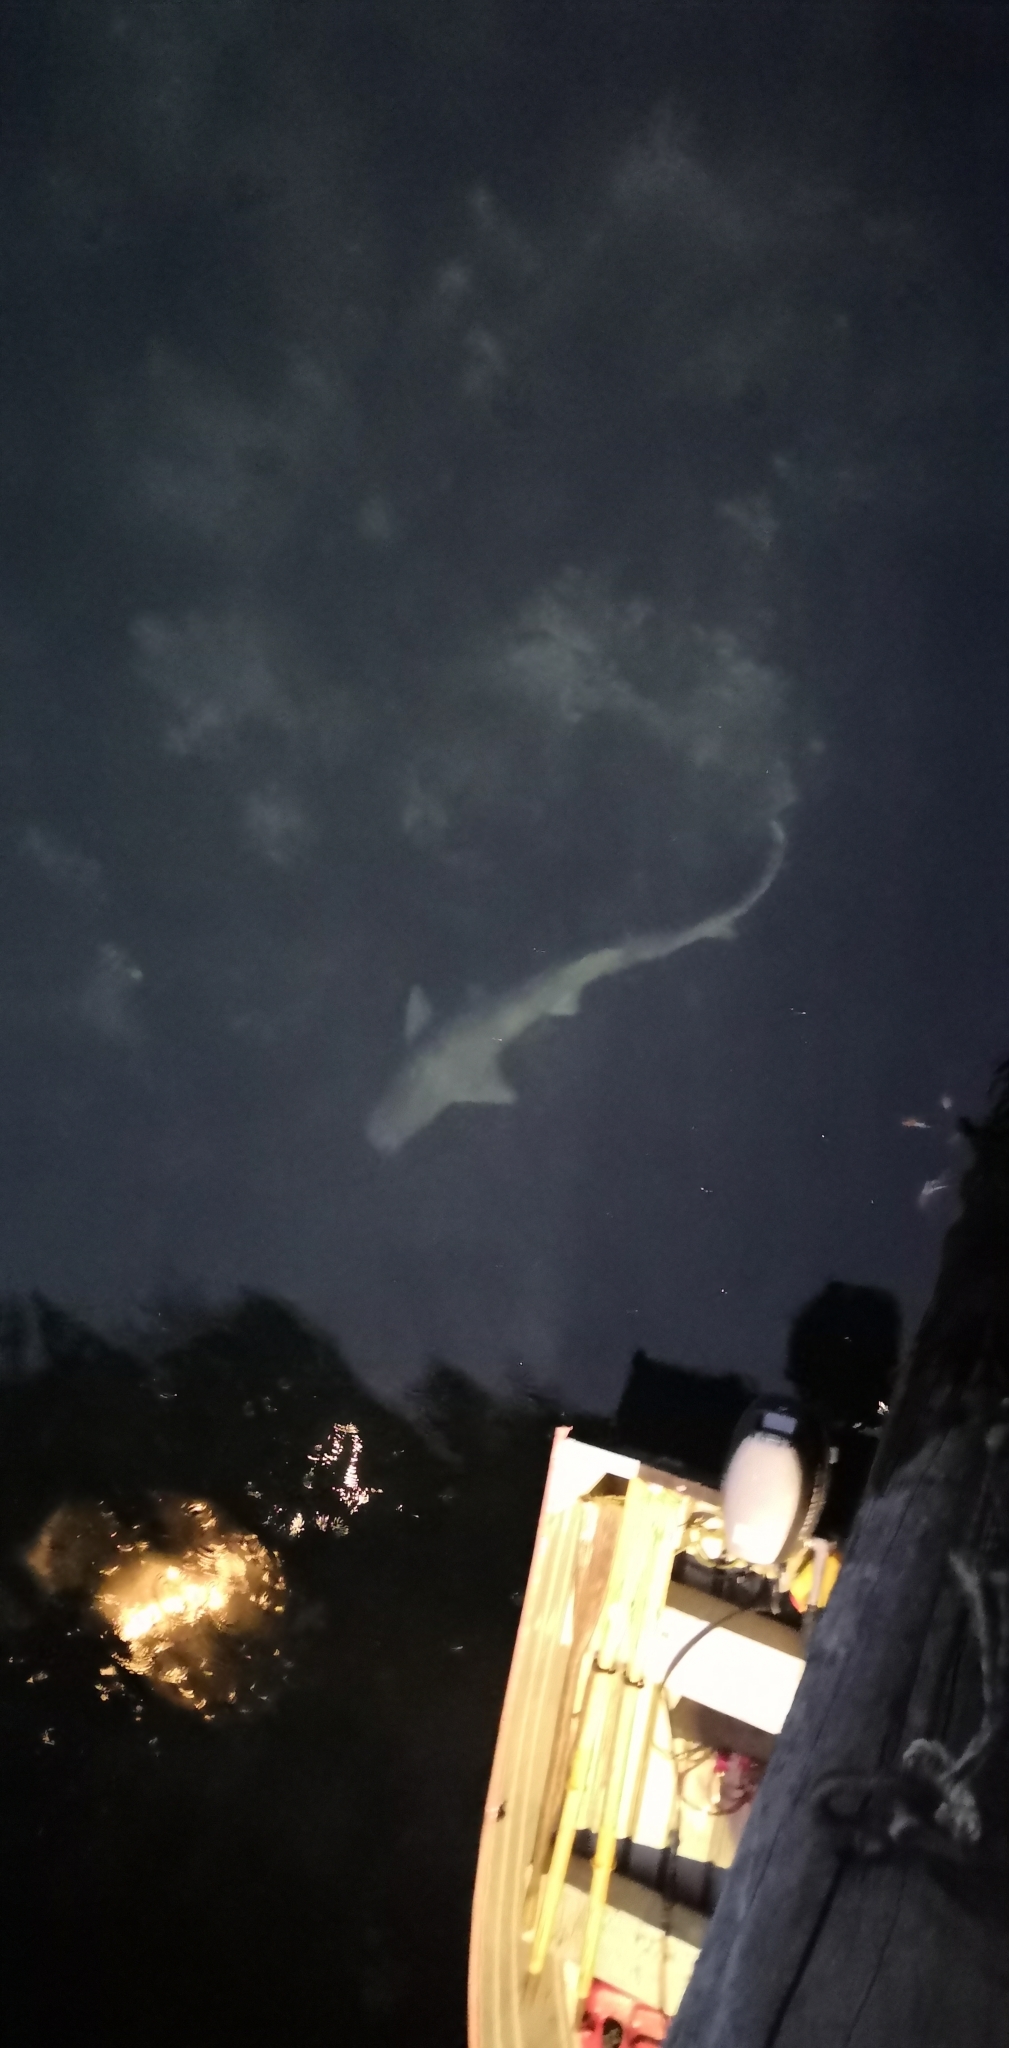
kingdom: Animalia
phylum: Chordata
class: Elasmobranchii
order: Hexanchiformes
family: Hexanchidae
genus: Notorynchus
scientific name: Notorynchus cepedianus
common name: Broadnose sevengill shark
